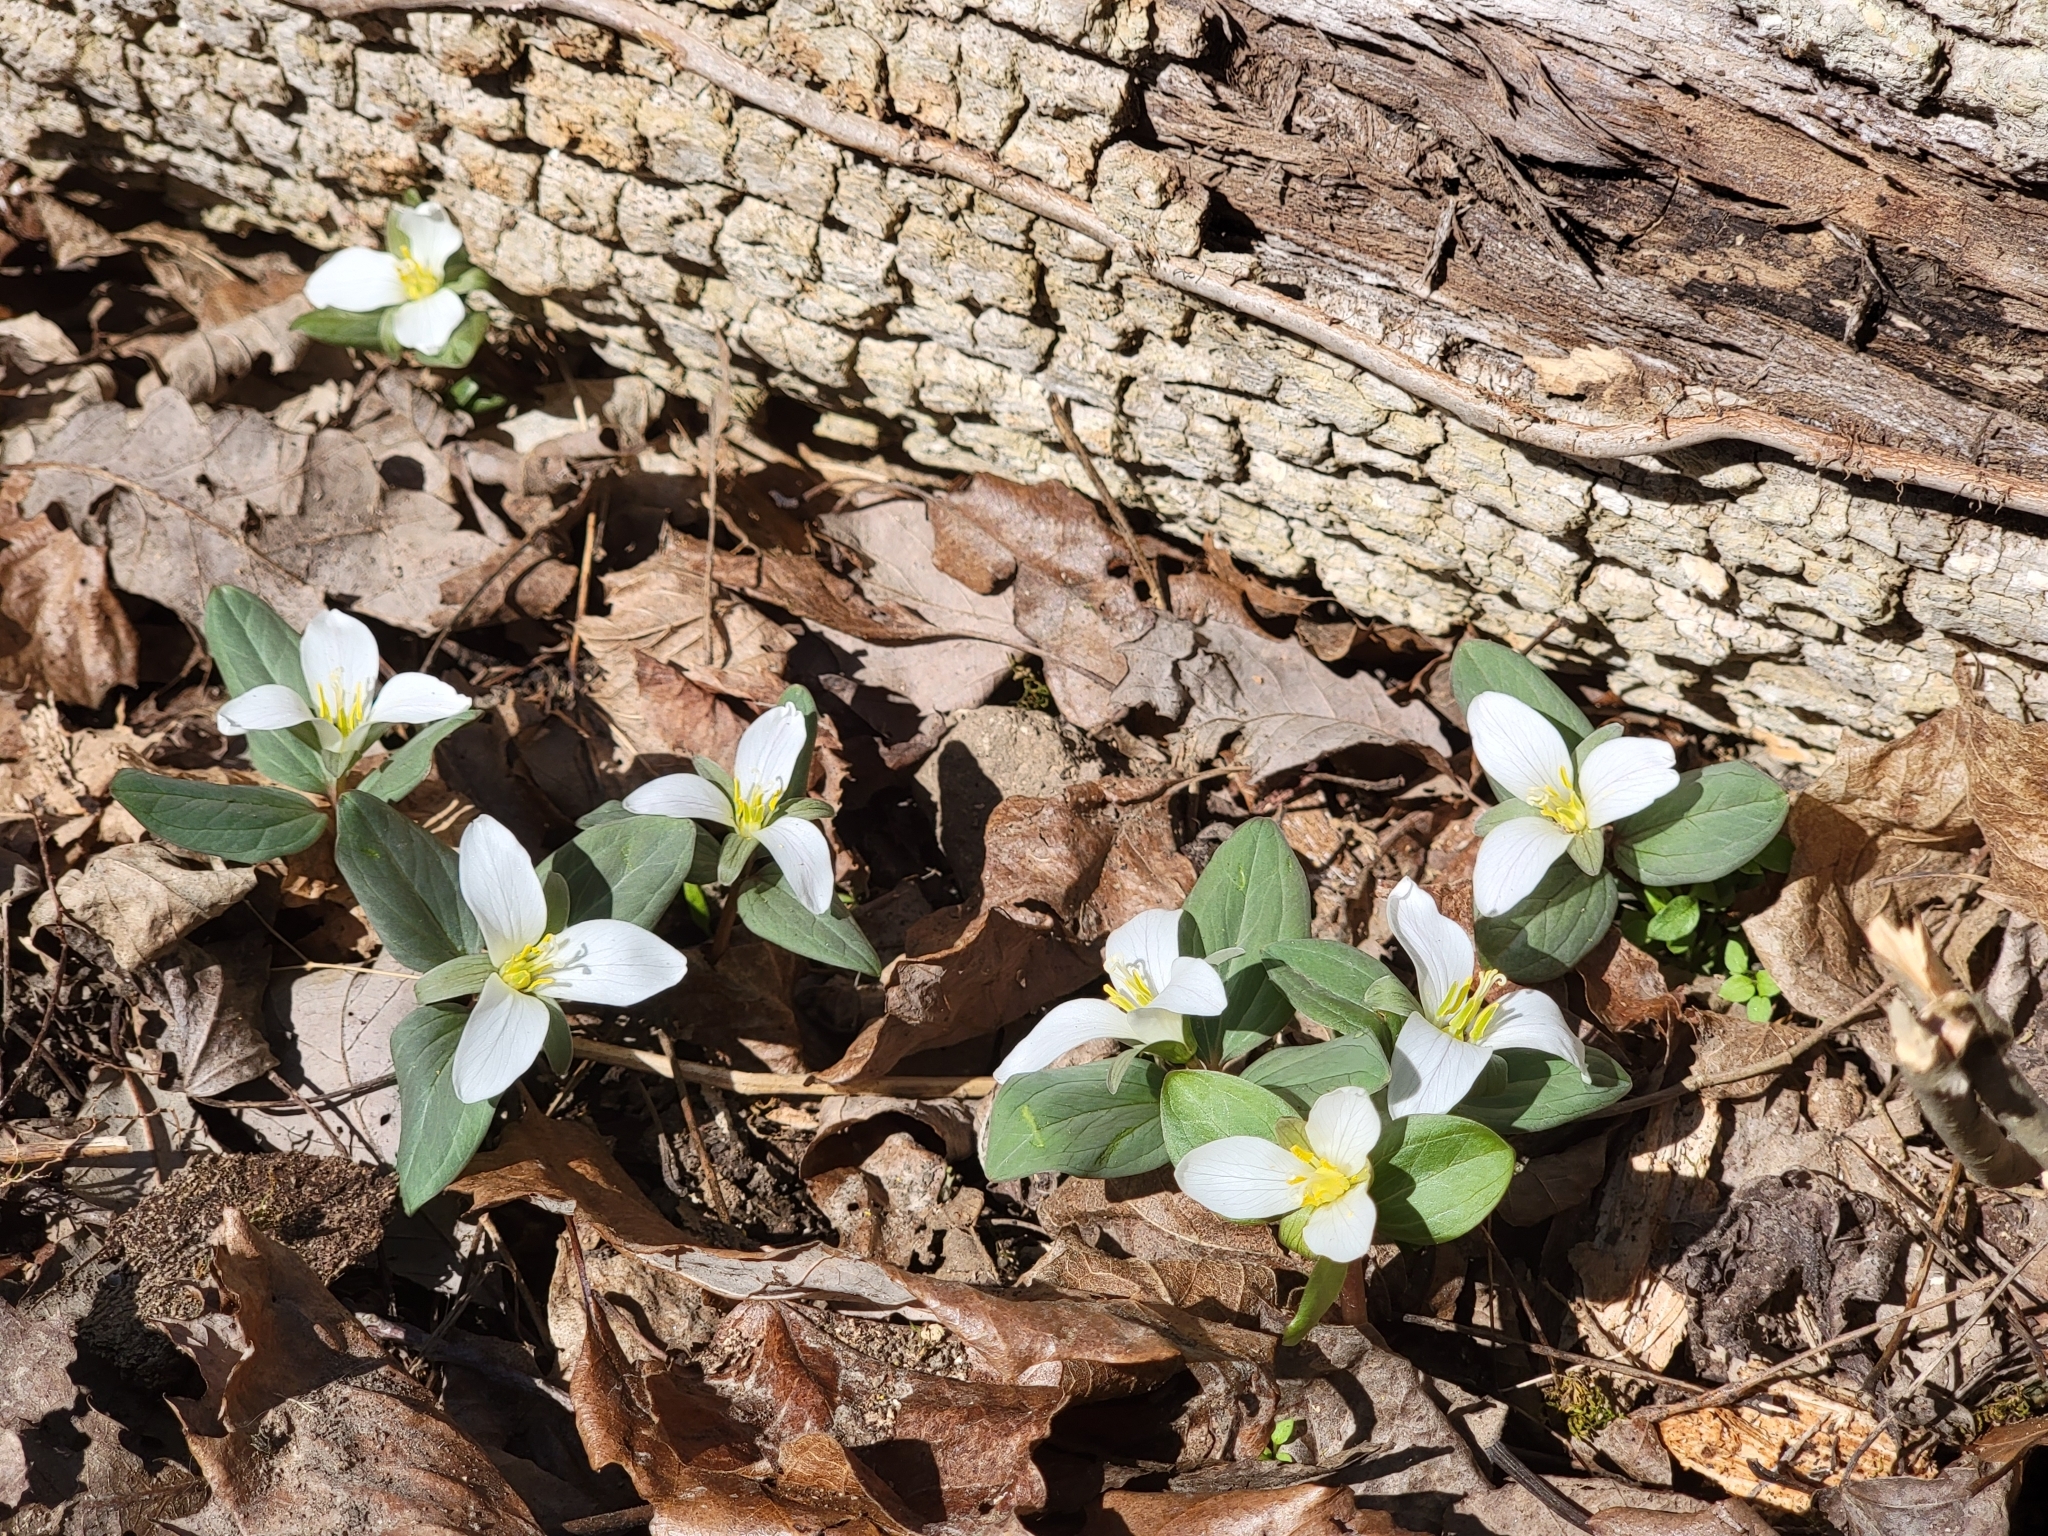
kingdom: Plantae
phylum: Tracheophyta
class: Liliopsida
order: Liliales
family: Melanthiaceae
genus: Trillium
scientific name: Trillium nivale
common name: Dwarf white trillium
